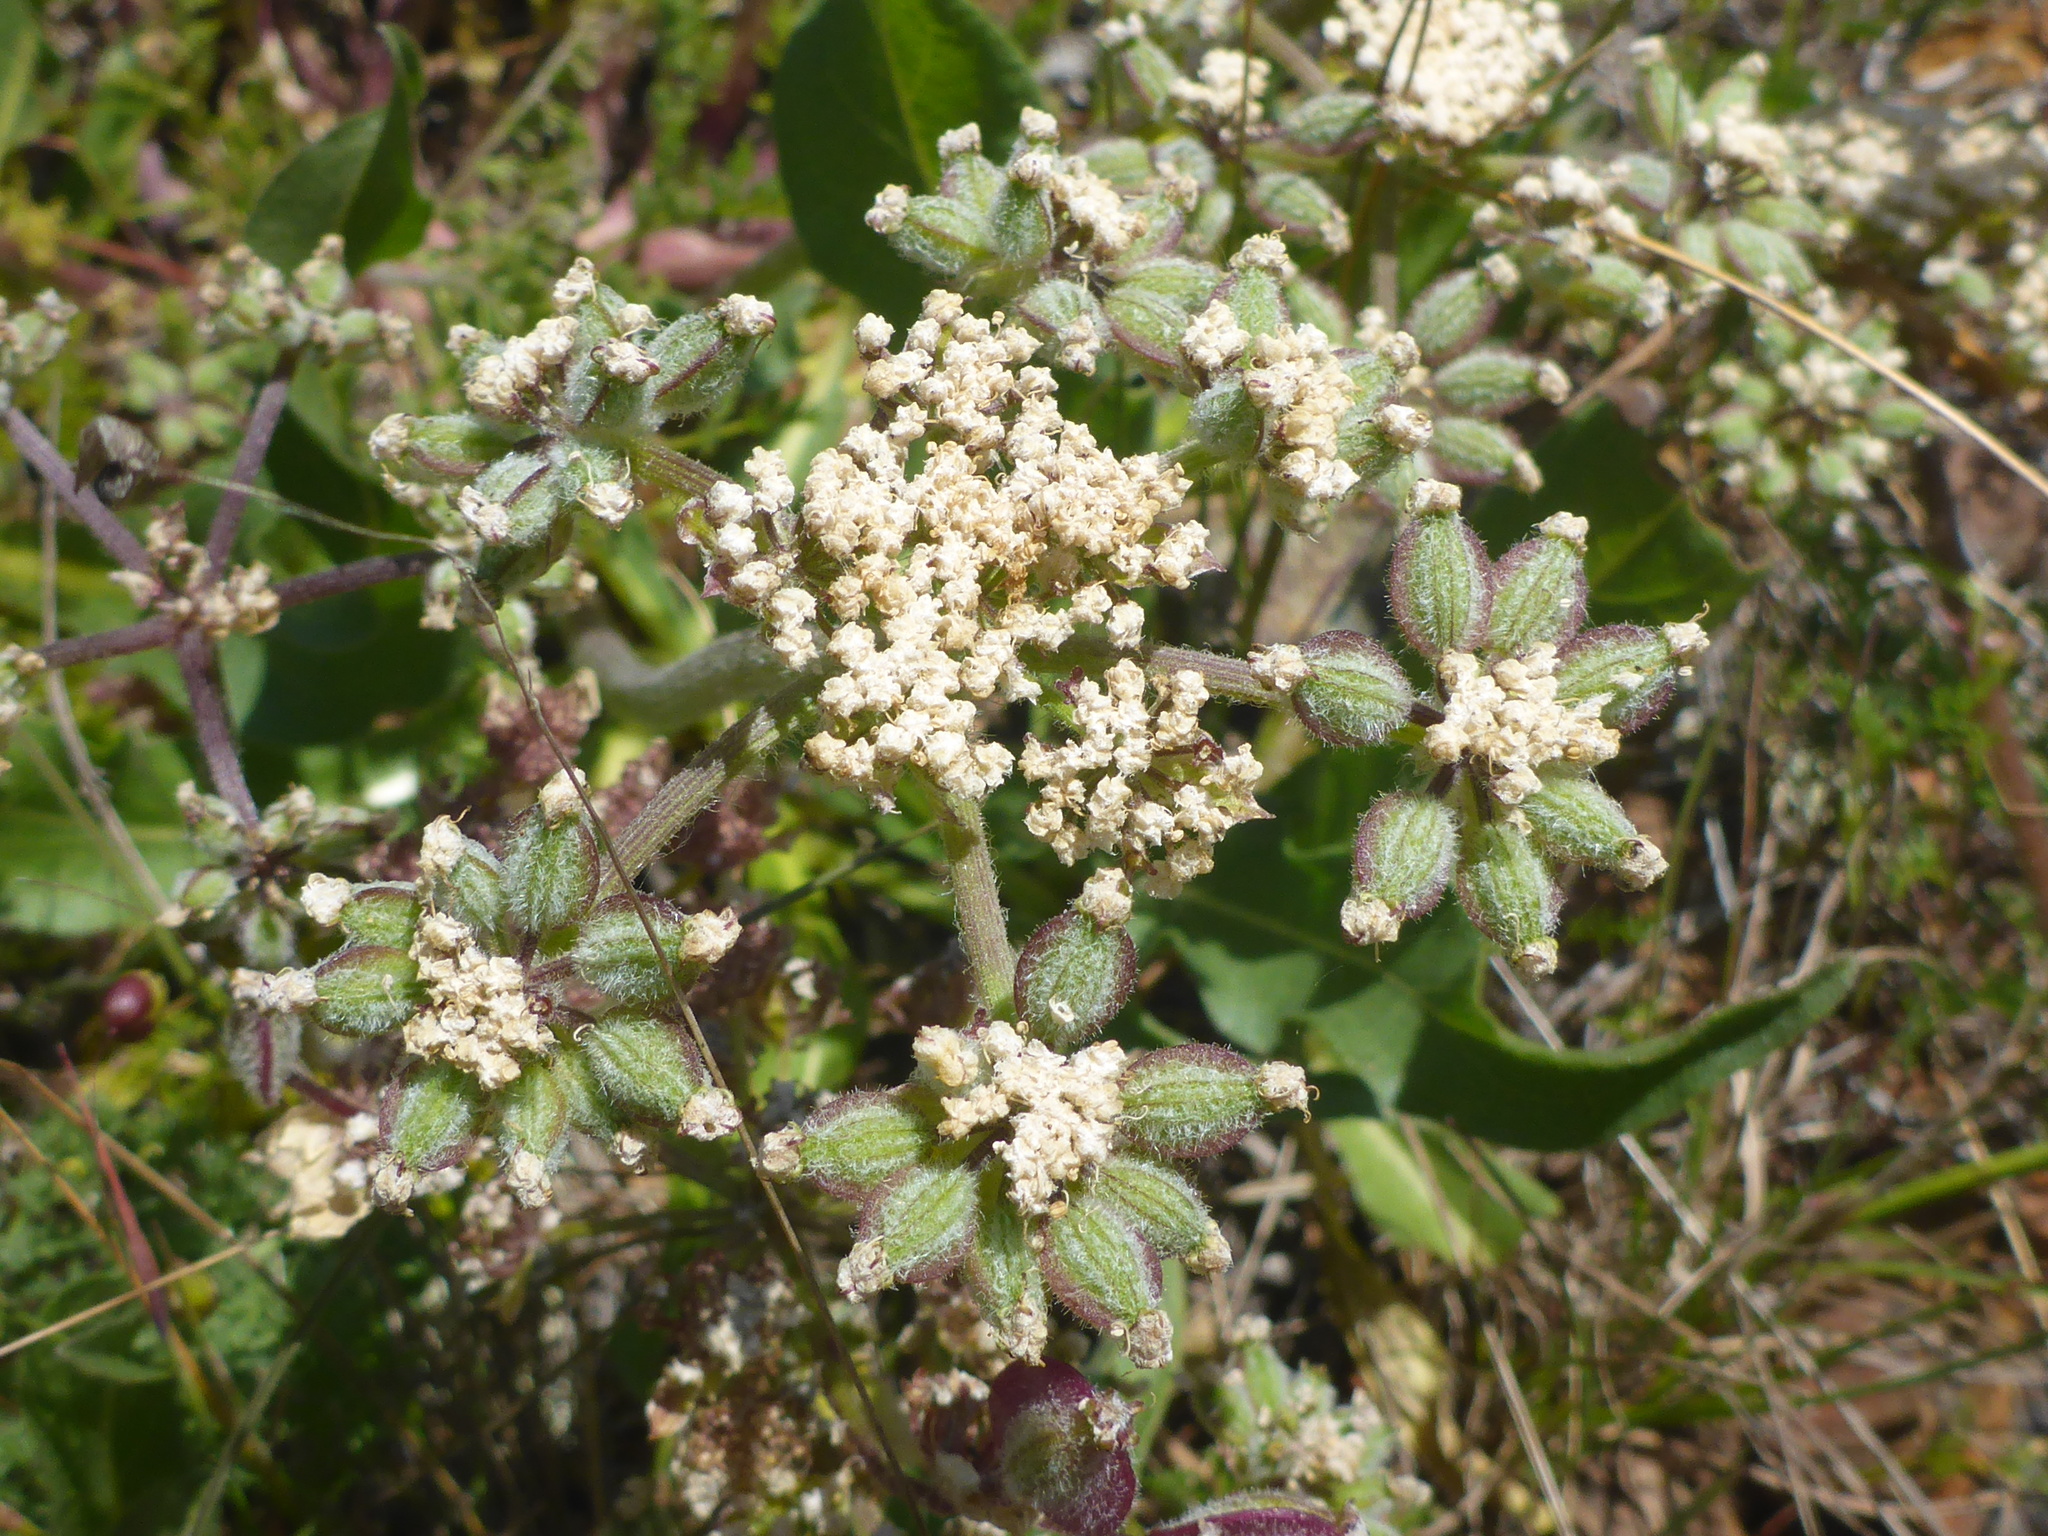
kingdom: Plantae
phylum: Tracheophyta
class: Magnoliopsida
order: Apiales
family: Apiaceae
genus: Lomatium
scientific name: Lomatium dasycarpum
